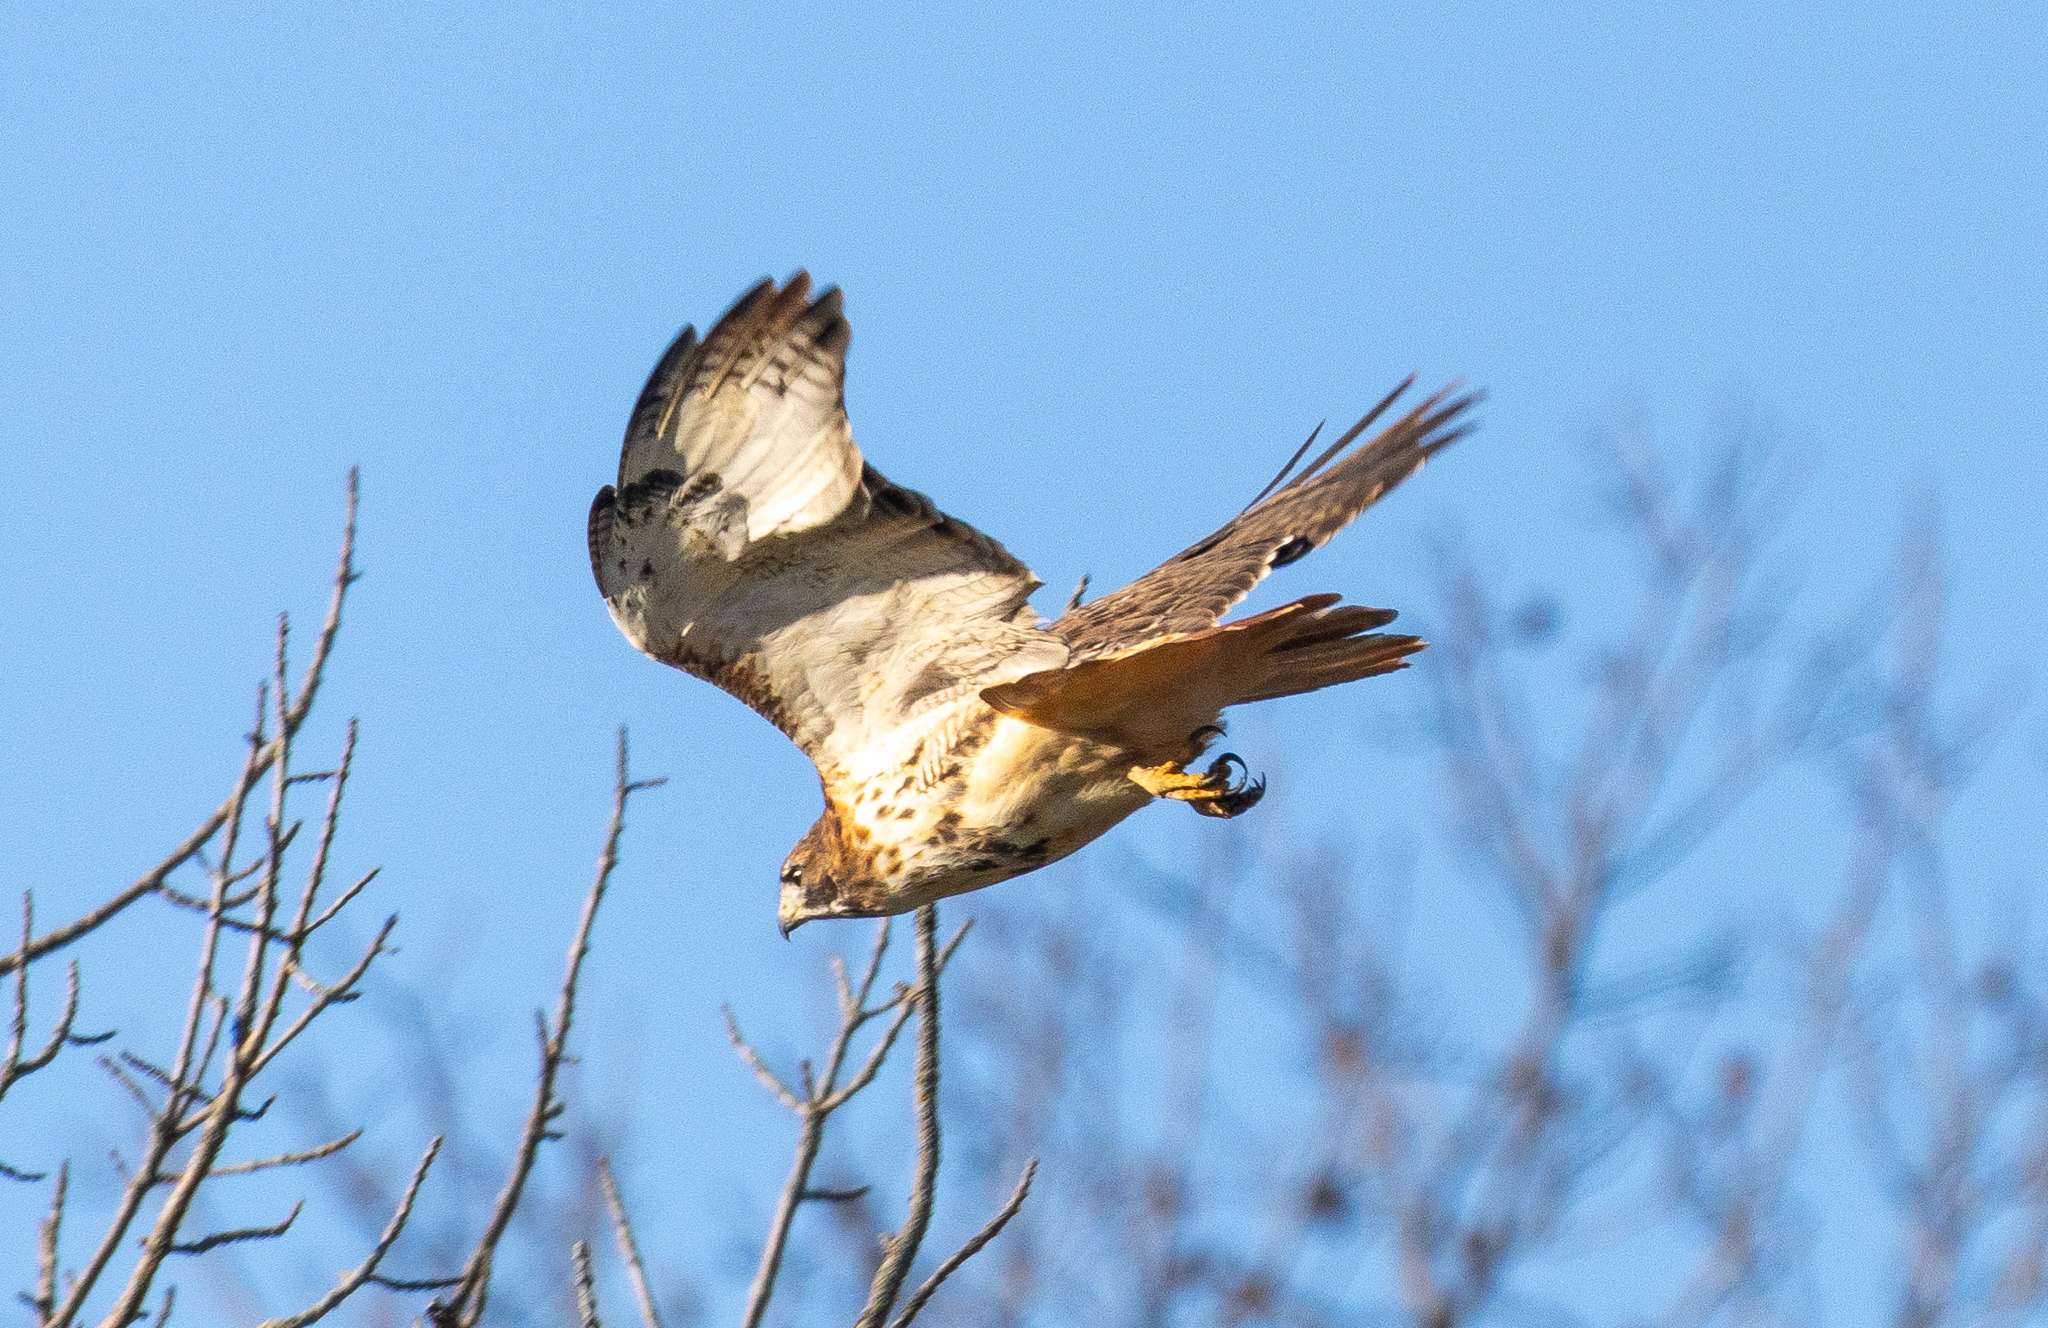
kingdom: Animalia
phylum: Chordata
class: Aves
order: Accipitriformes
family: Accipitridae
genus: Buteo
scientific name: Buteo jamaicensis
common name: Red-tailed hawk
